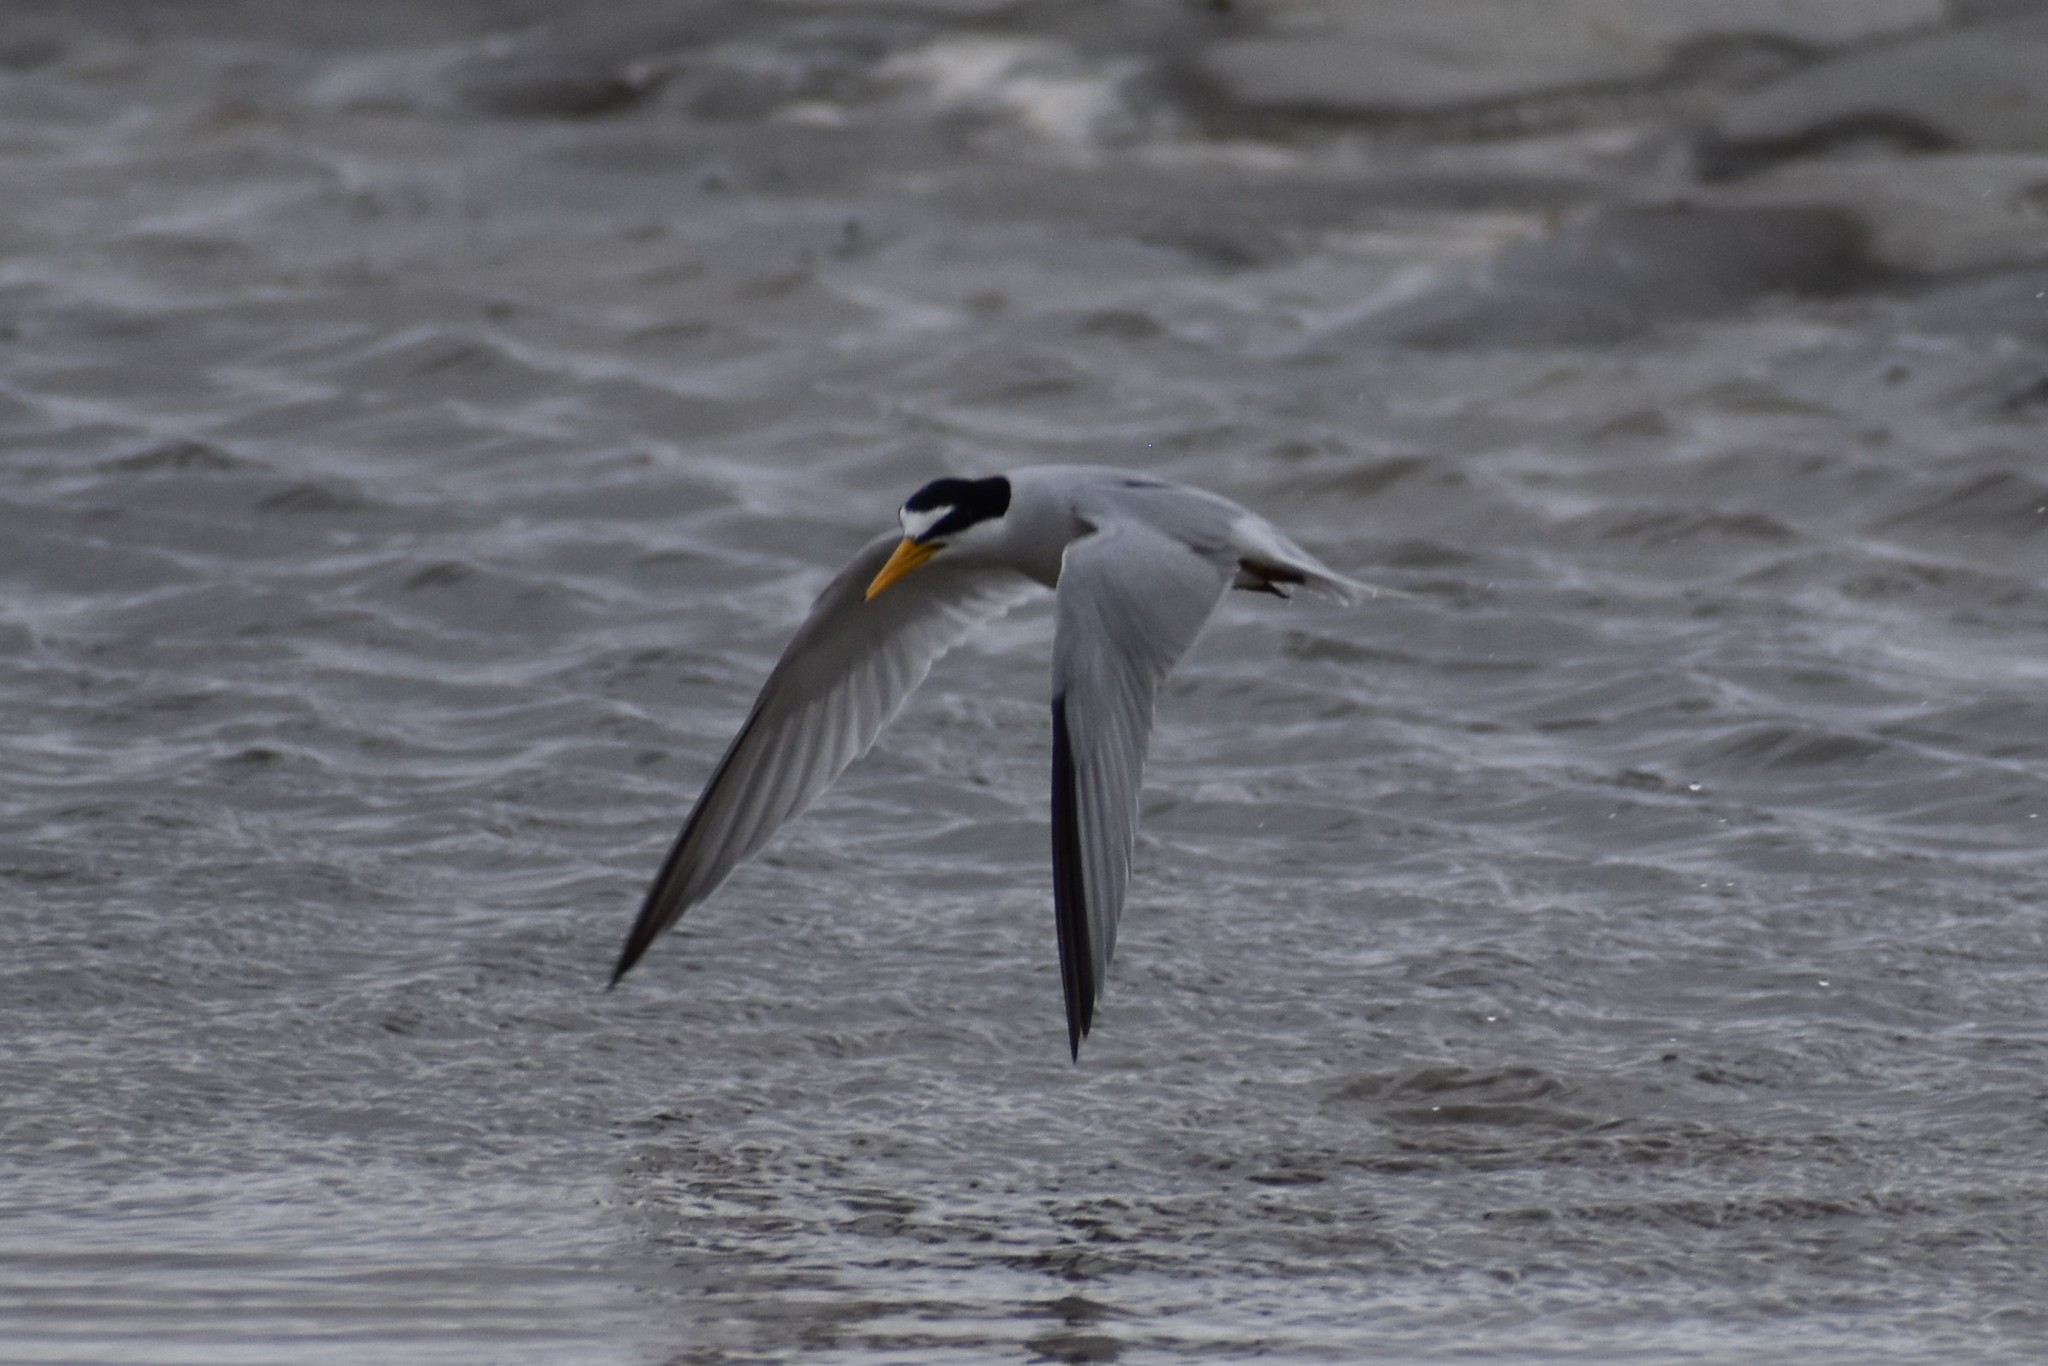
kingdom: Animalia
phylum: Chordata
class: Aves
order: Charadriiformes
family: Laridae
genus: Sternula
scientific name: Sternula antillarum
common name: Least tern
